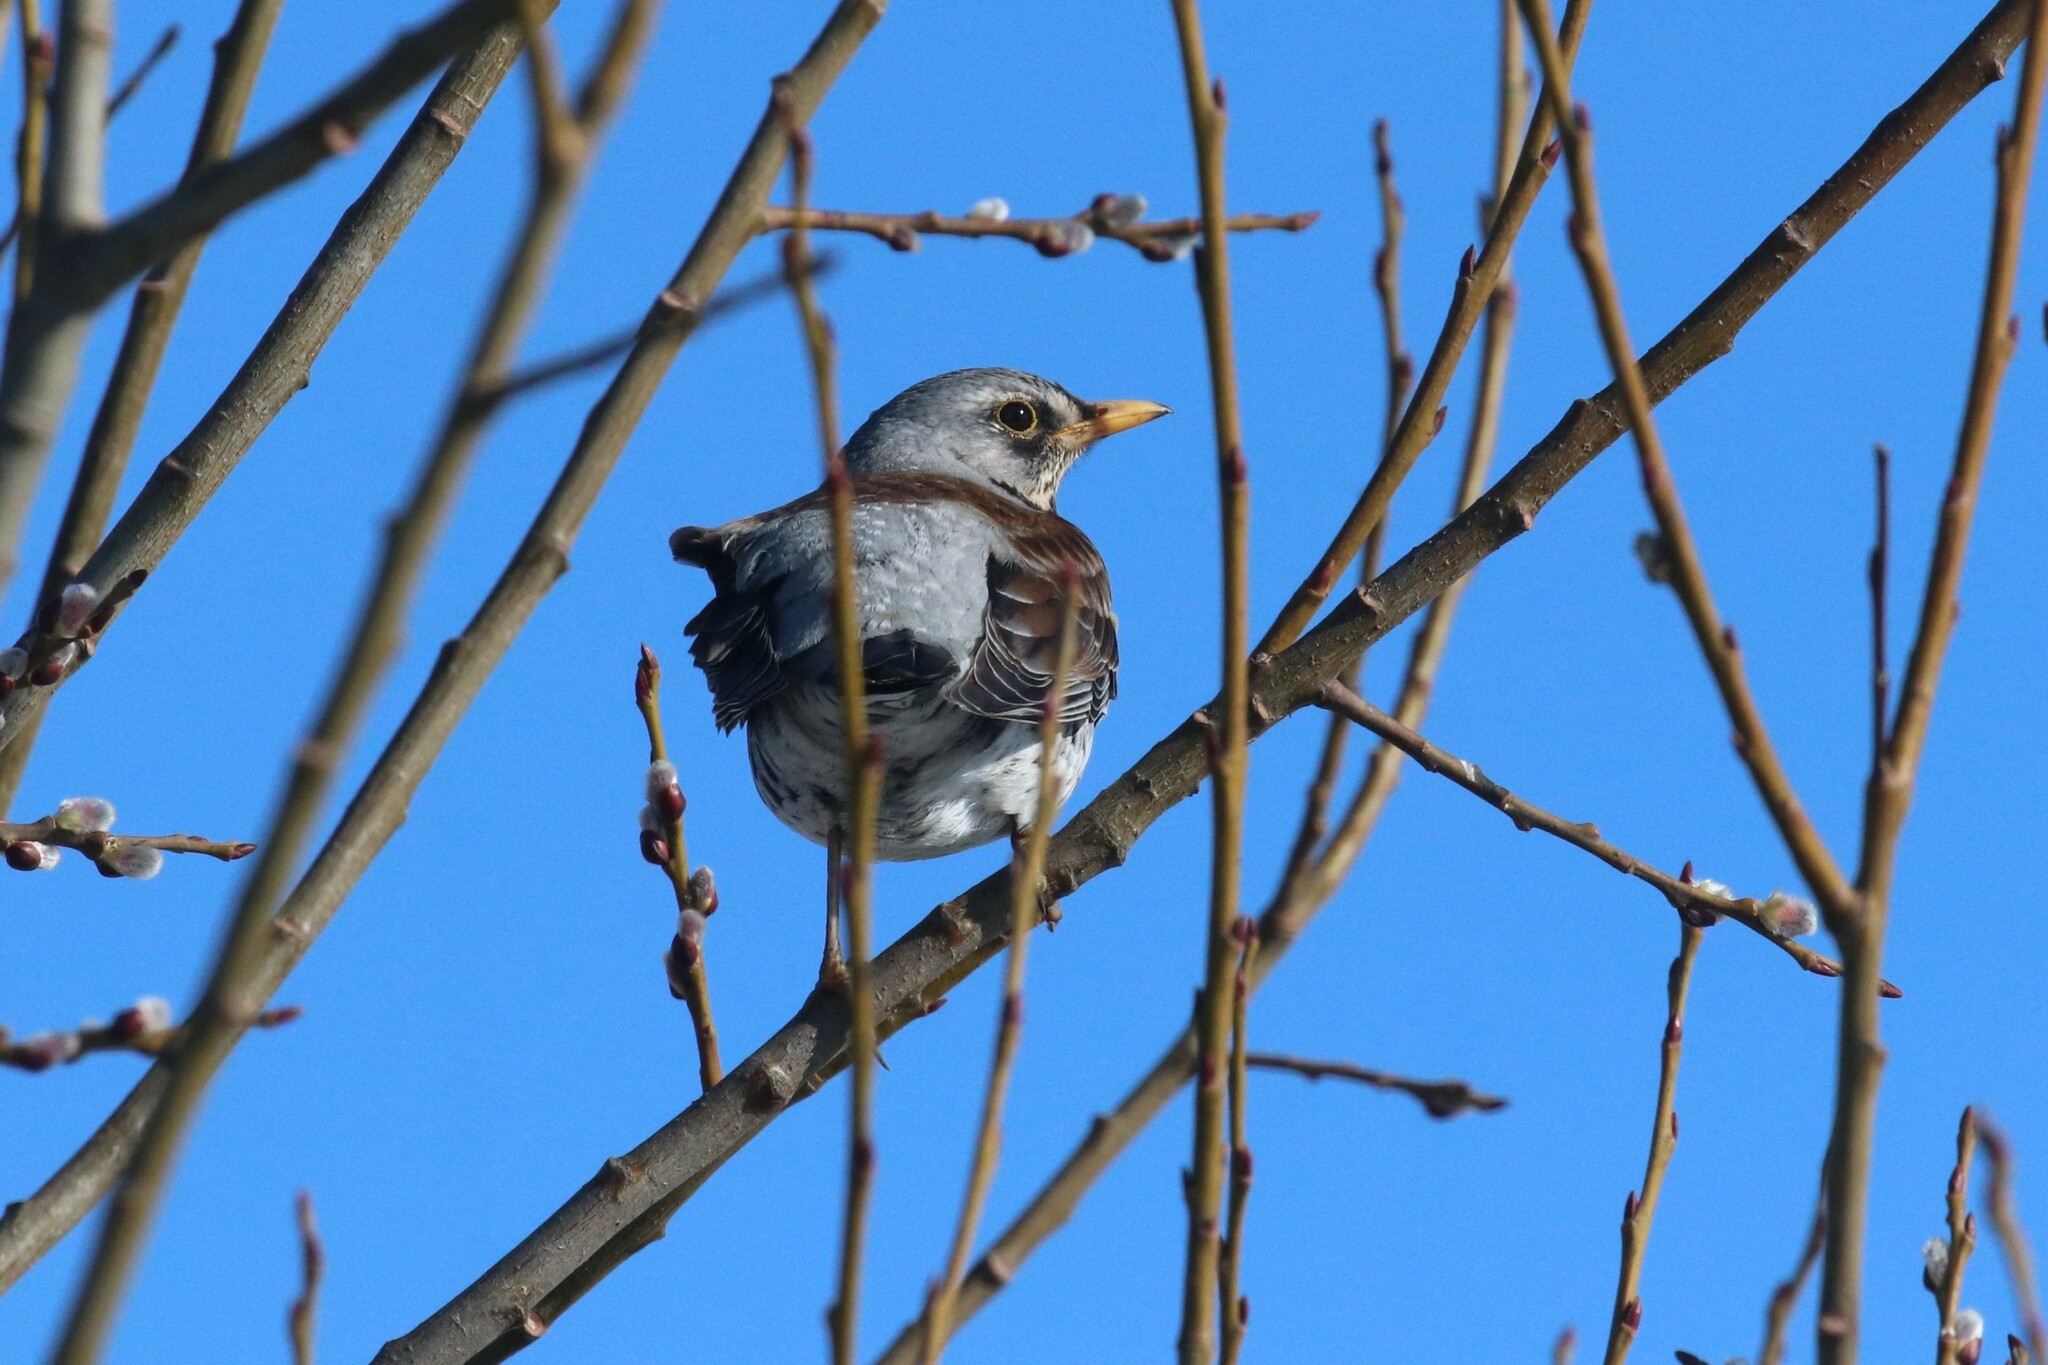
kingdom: Animalia
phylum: Chordata
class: Aves
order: Passeriformes
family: Turdidae
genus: Turdus
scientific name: Turdus pilaris
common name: Fieldfare
